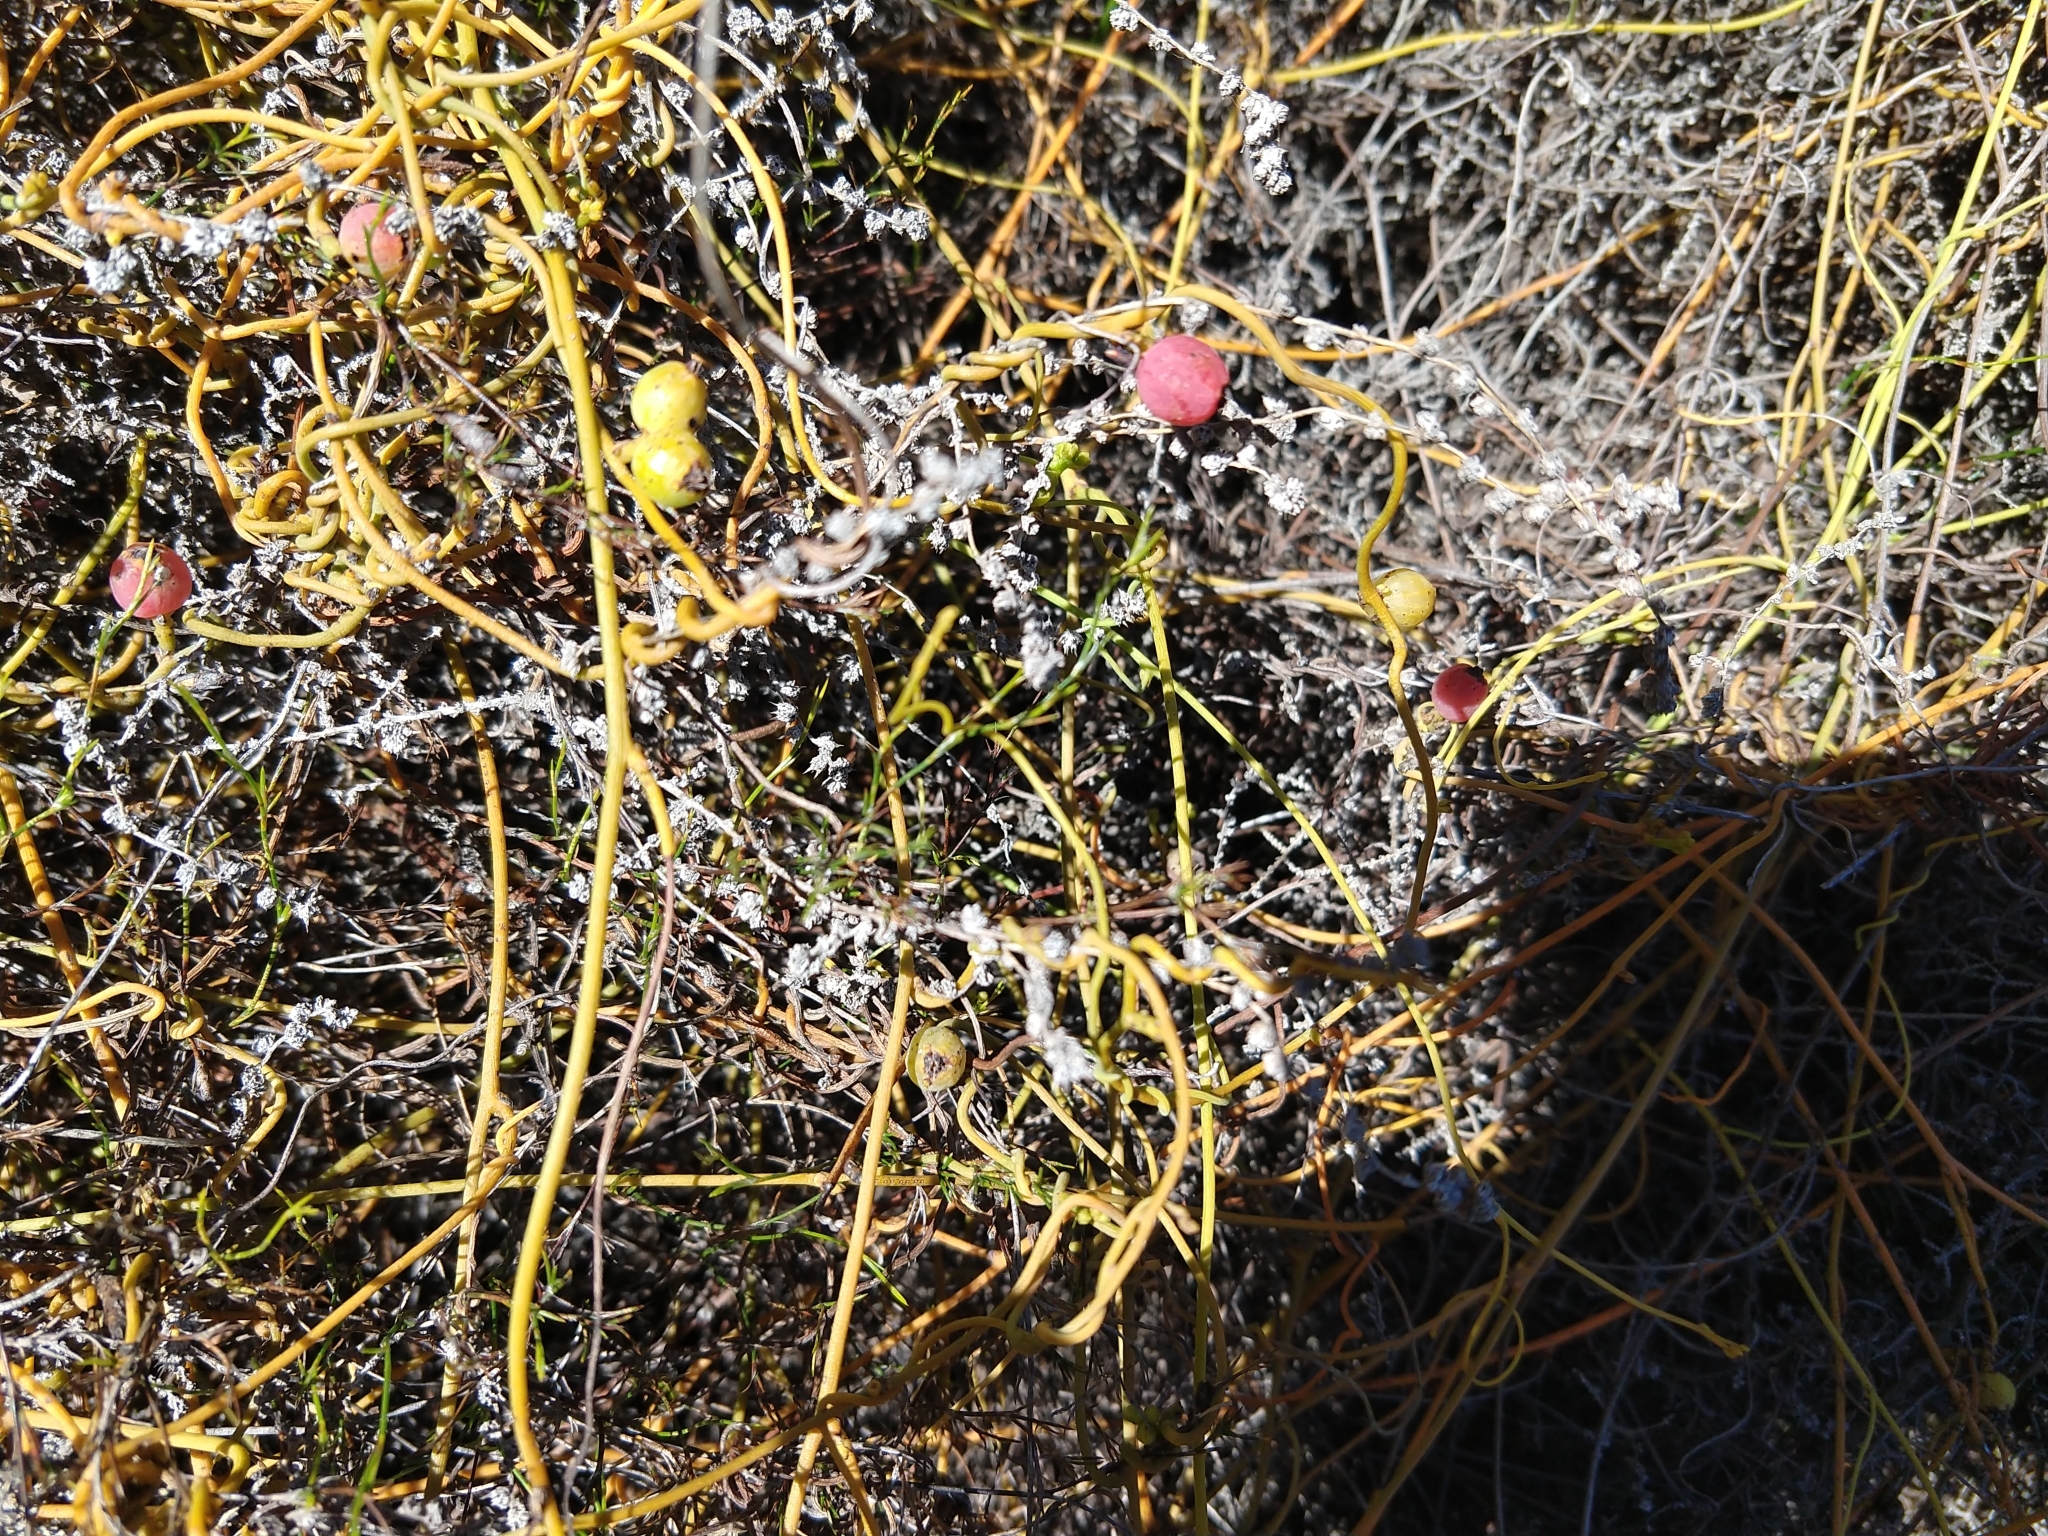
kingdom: Plantae
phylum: Tracheophyta
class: Magnoliopsida
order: Laurales
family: Lauraceae
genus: Cassytha
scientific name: Cassytha ciliolata
